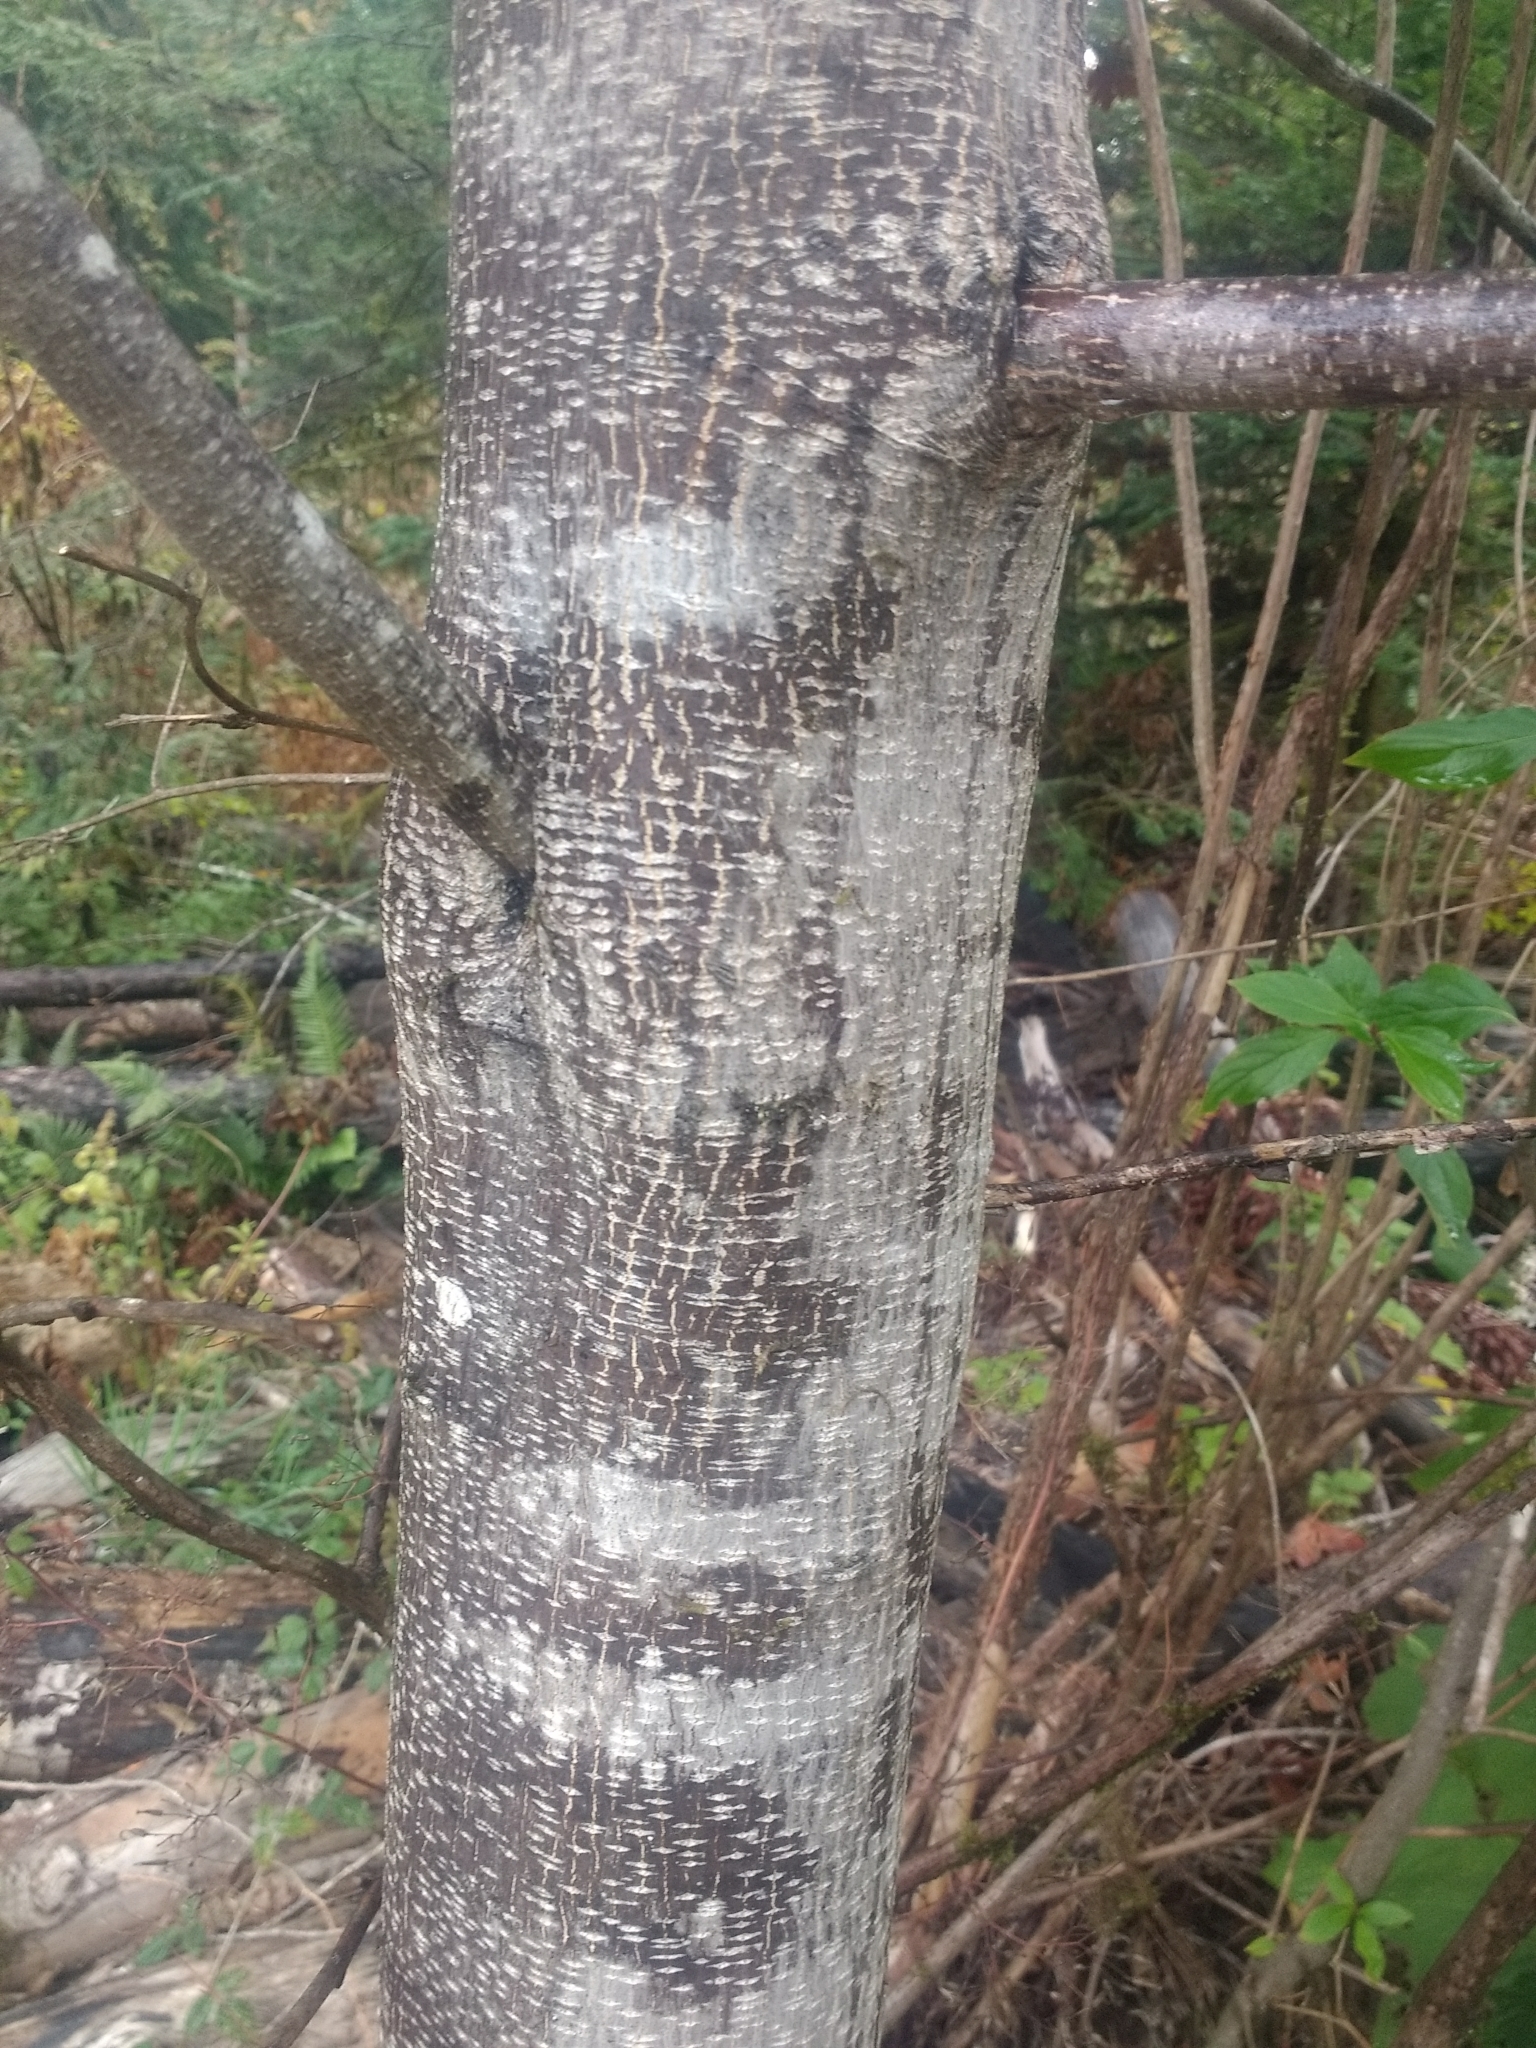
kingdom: Plantae
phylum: Tracheophyta
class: Magnoliopsida
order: Rosales
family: Rhamnaceae
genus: Frangula
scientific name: Frangula purshiana
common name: Cascara buckthorn
